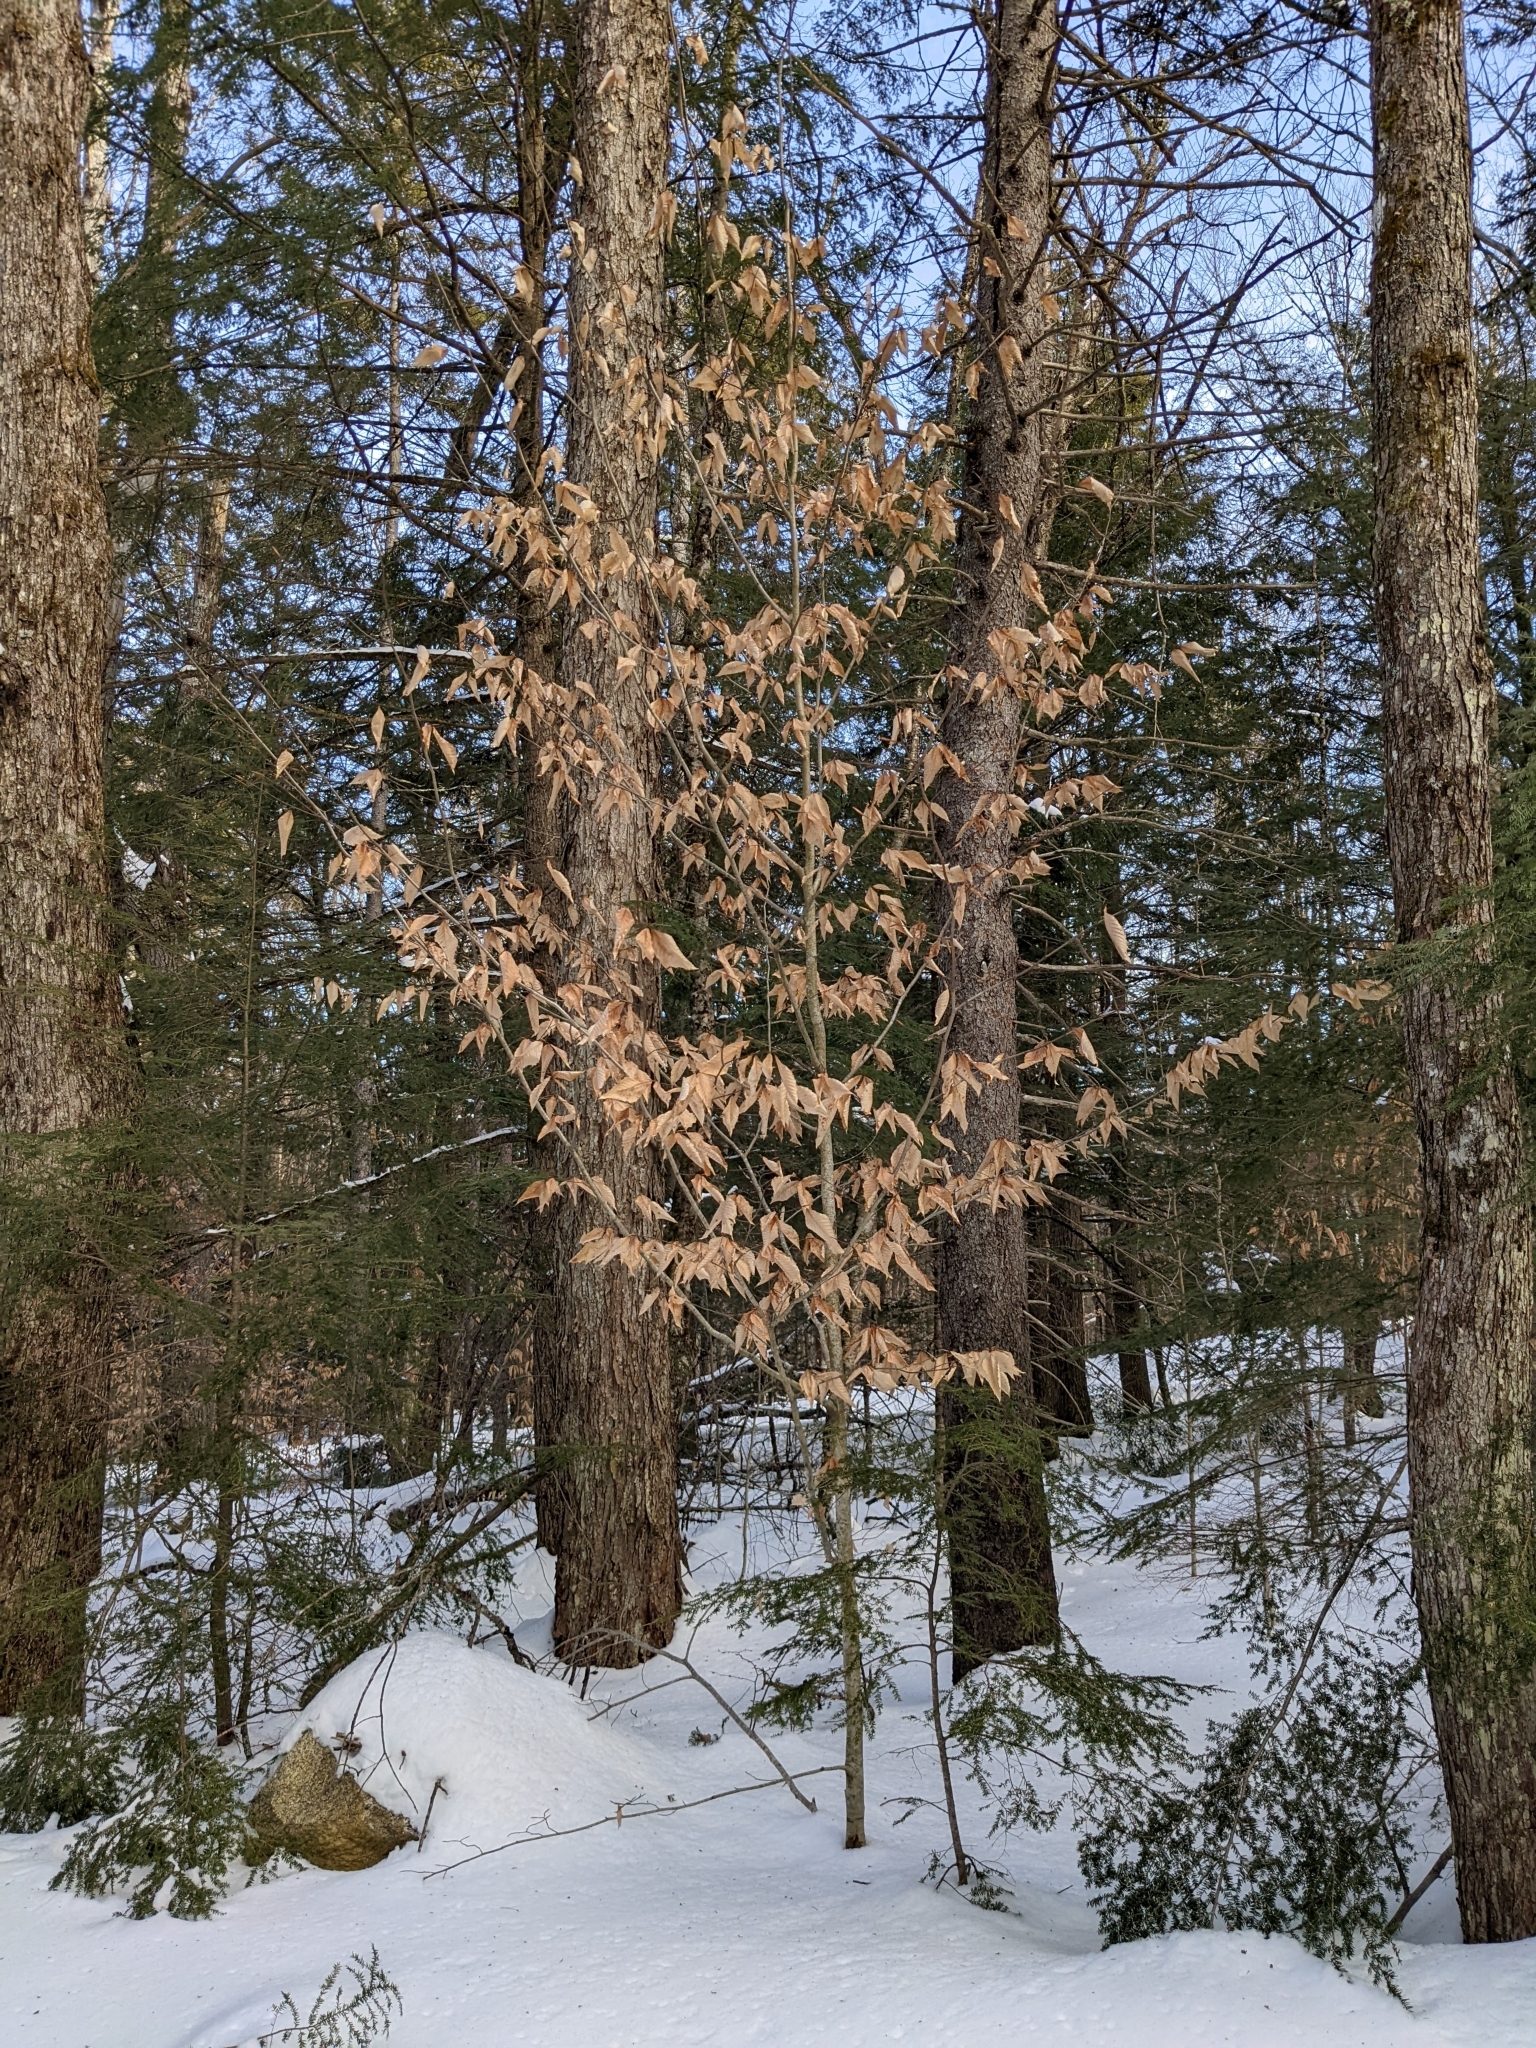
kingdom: Plantae
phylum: Tracheophyta
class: Magnoliopsida
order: Fagales
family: Fagaceae
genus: Fagus
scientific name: Fagus grandifolia
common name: American beech
